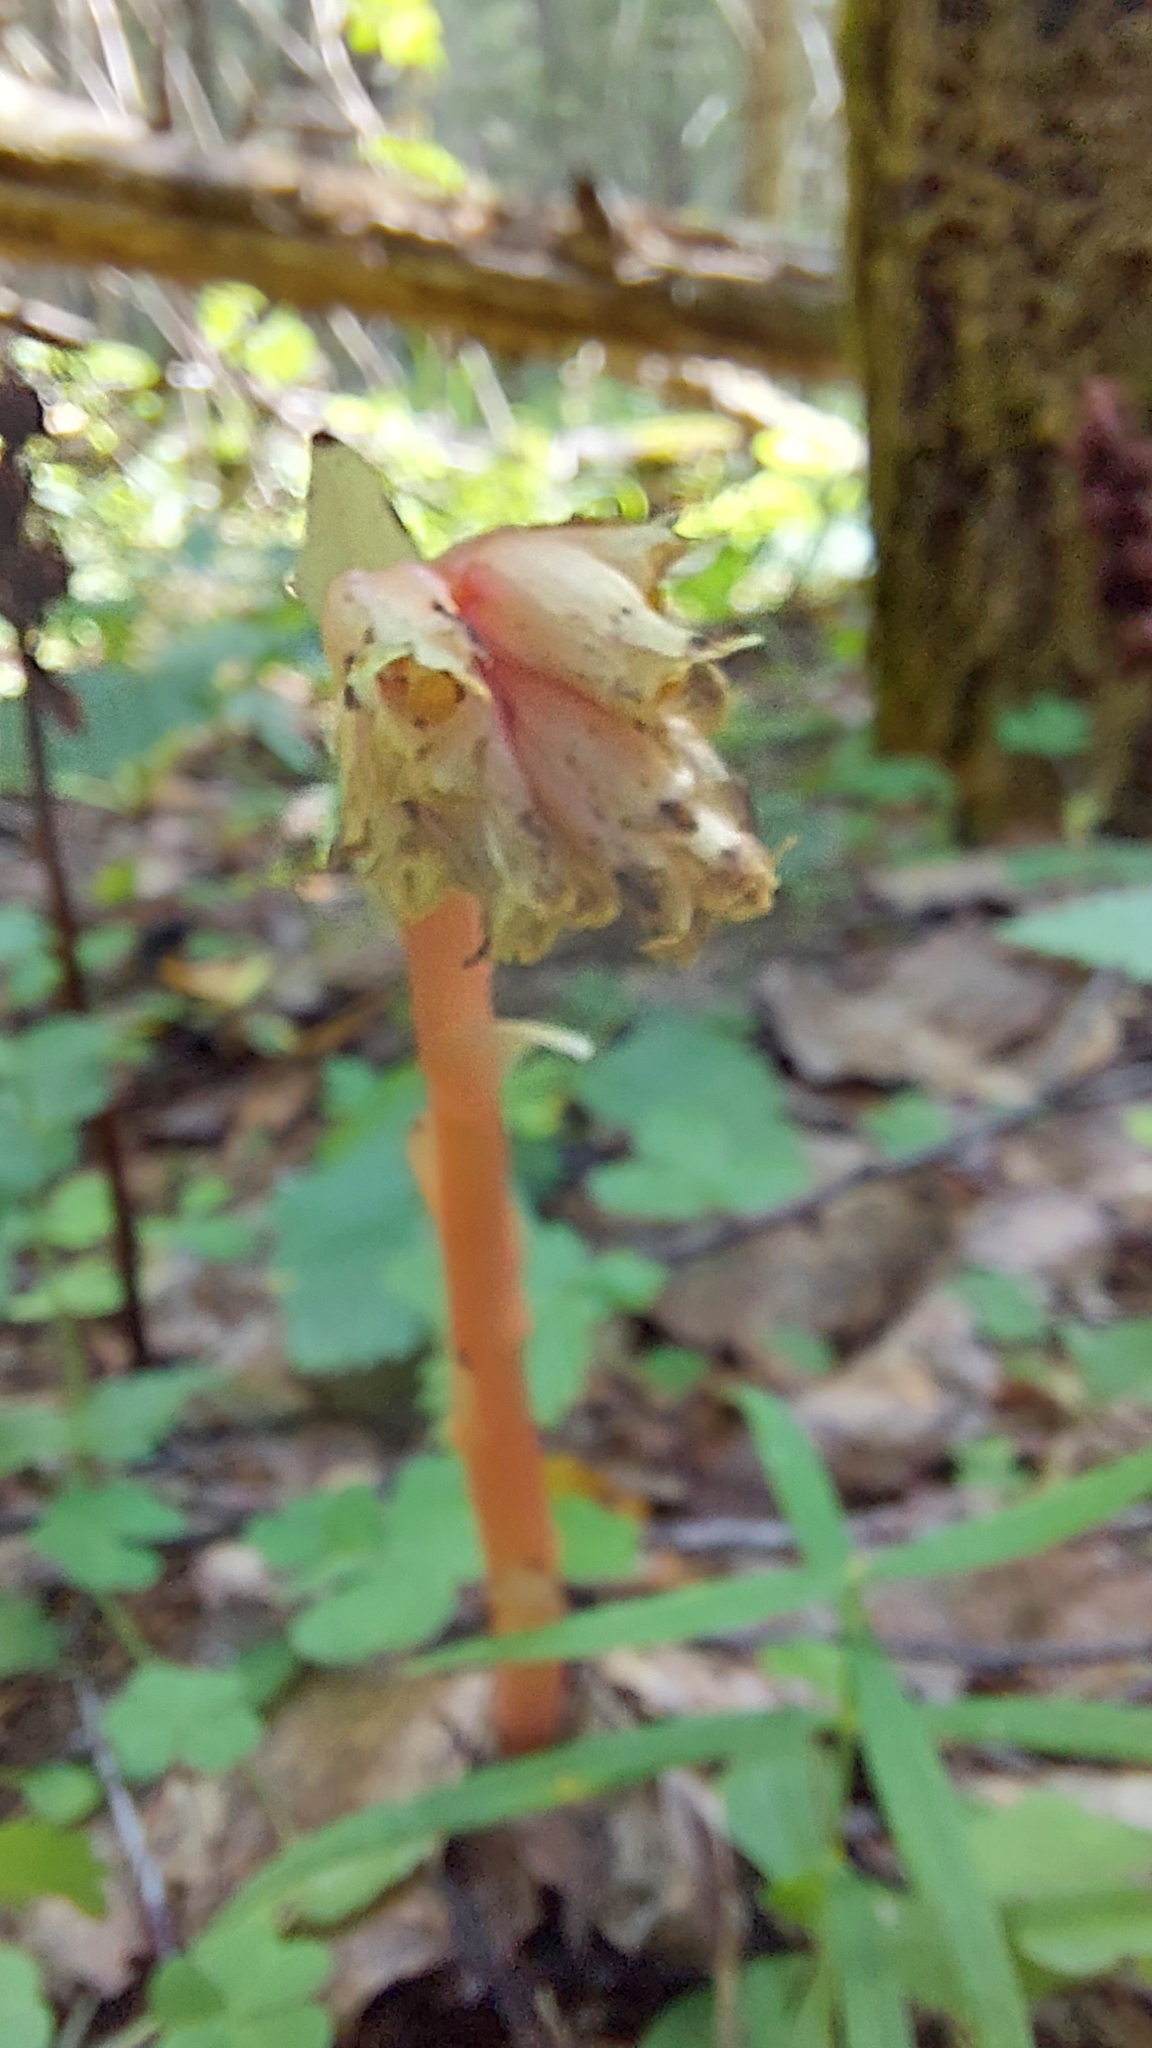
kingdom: Plantae
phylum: Tracheophyta
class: Magnoliopsida
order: Ericales
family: Ericaceae
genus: Hypopitys
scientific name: Hypopitys monotropa
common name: Yellow bird's-nest
